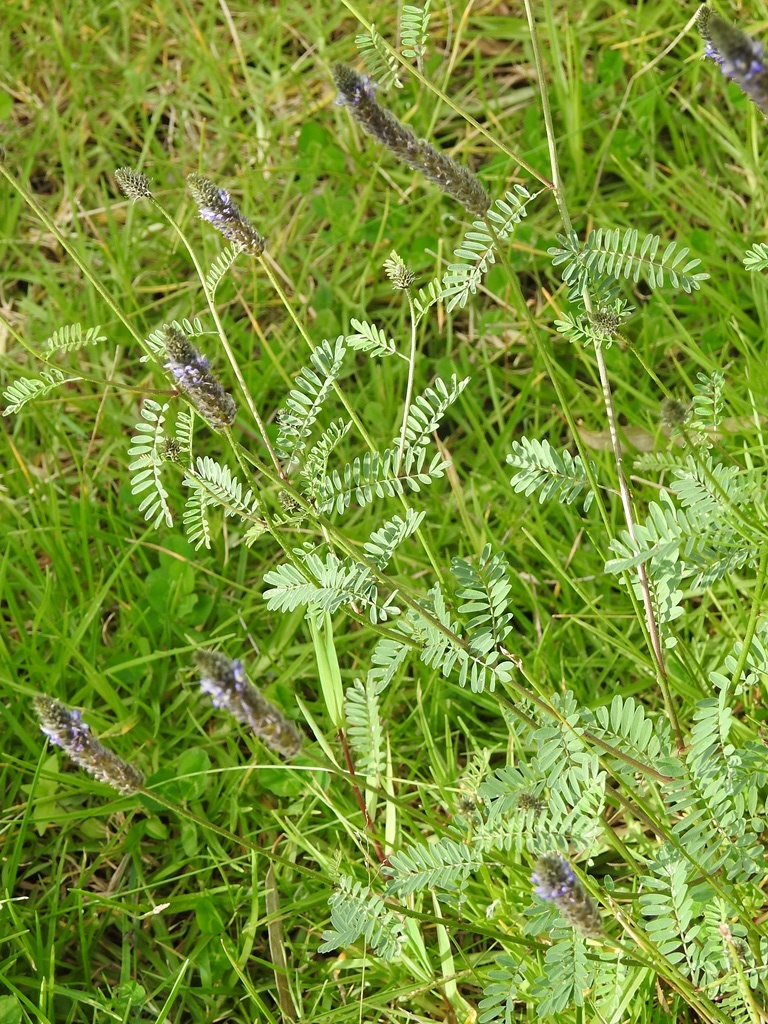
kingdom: Plantae
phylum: Tracheophyta
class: Magnoliopsida
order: Fabales
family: Fabaceae
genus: Dalea
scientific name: Dalea leporina
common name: Foxtail dalea
